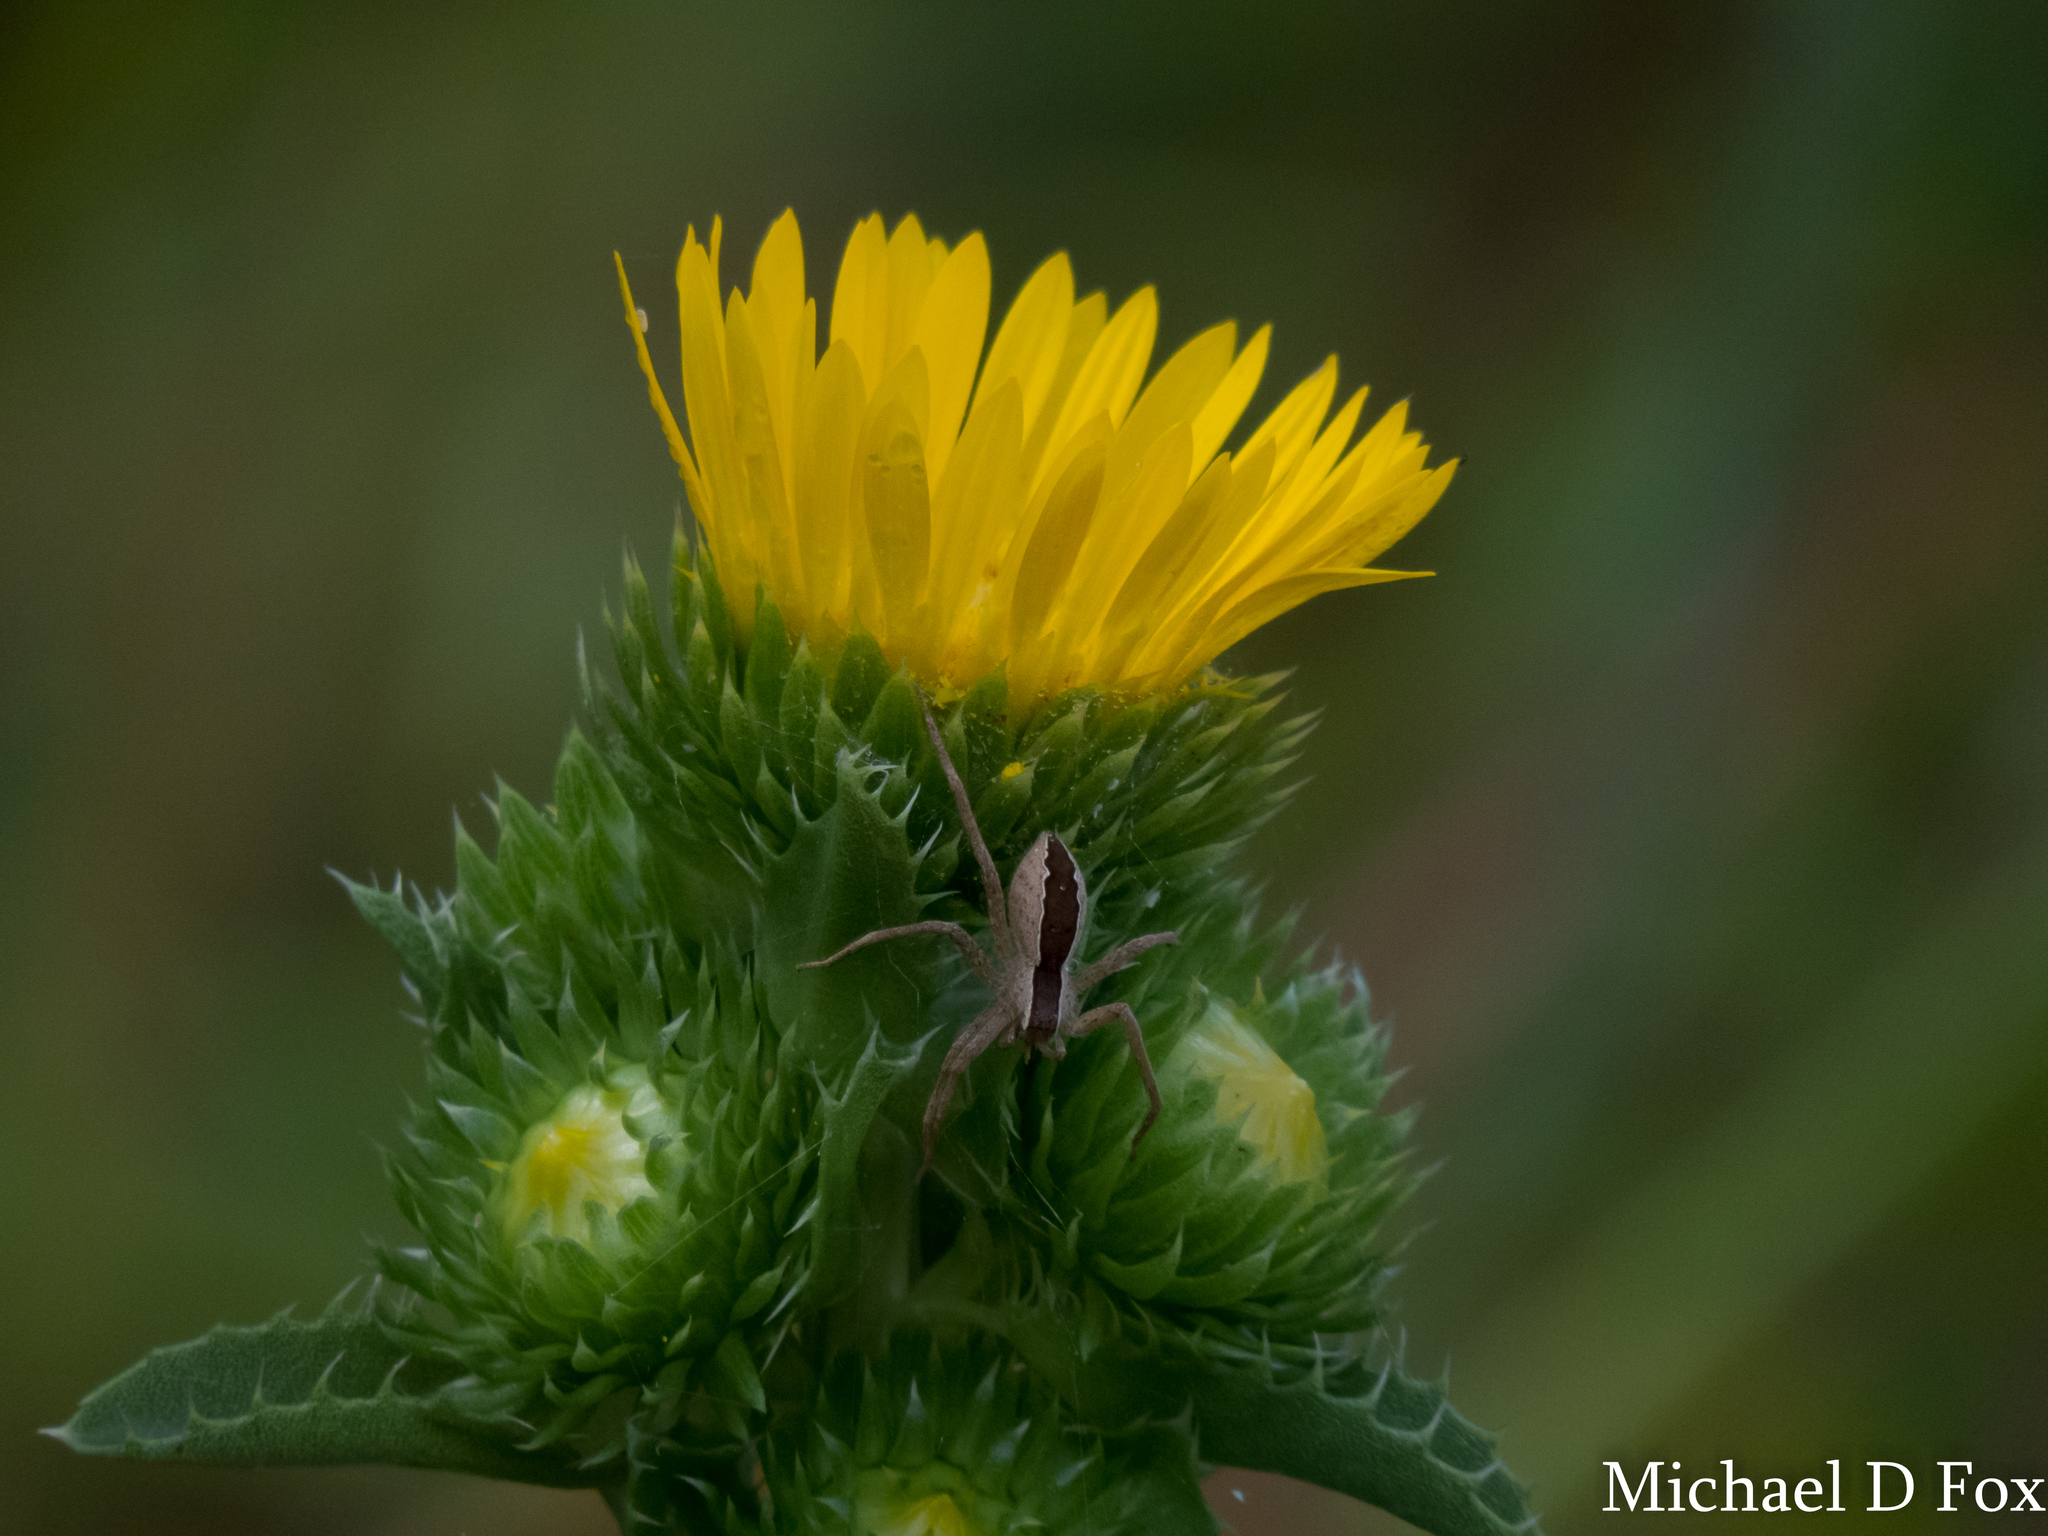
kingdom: Animalia
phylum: Arthropoda
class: Arachnida
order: Araneae
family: Pisauridae
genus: Pisaurina
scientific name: Pisaurina mira
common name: American nursery web spider
